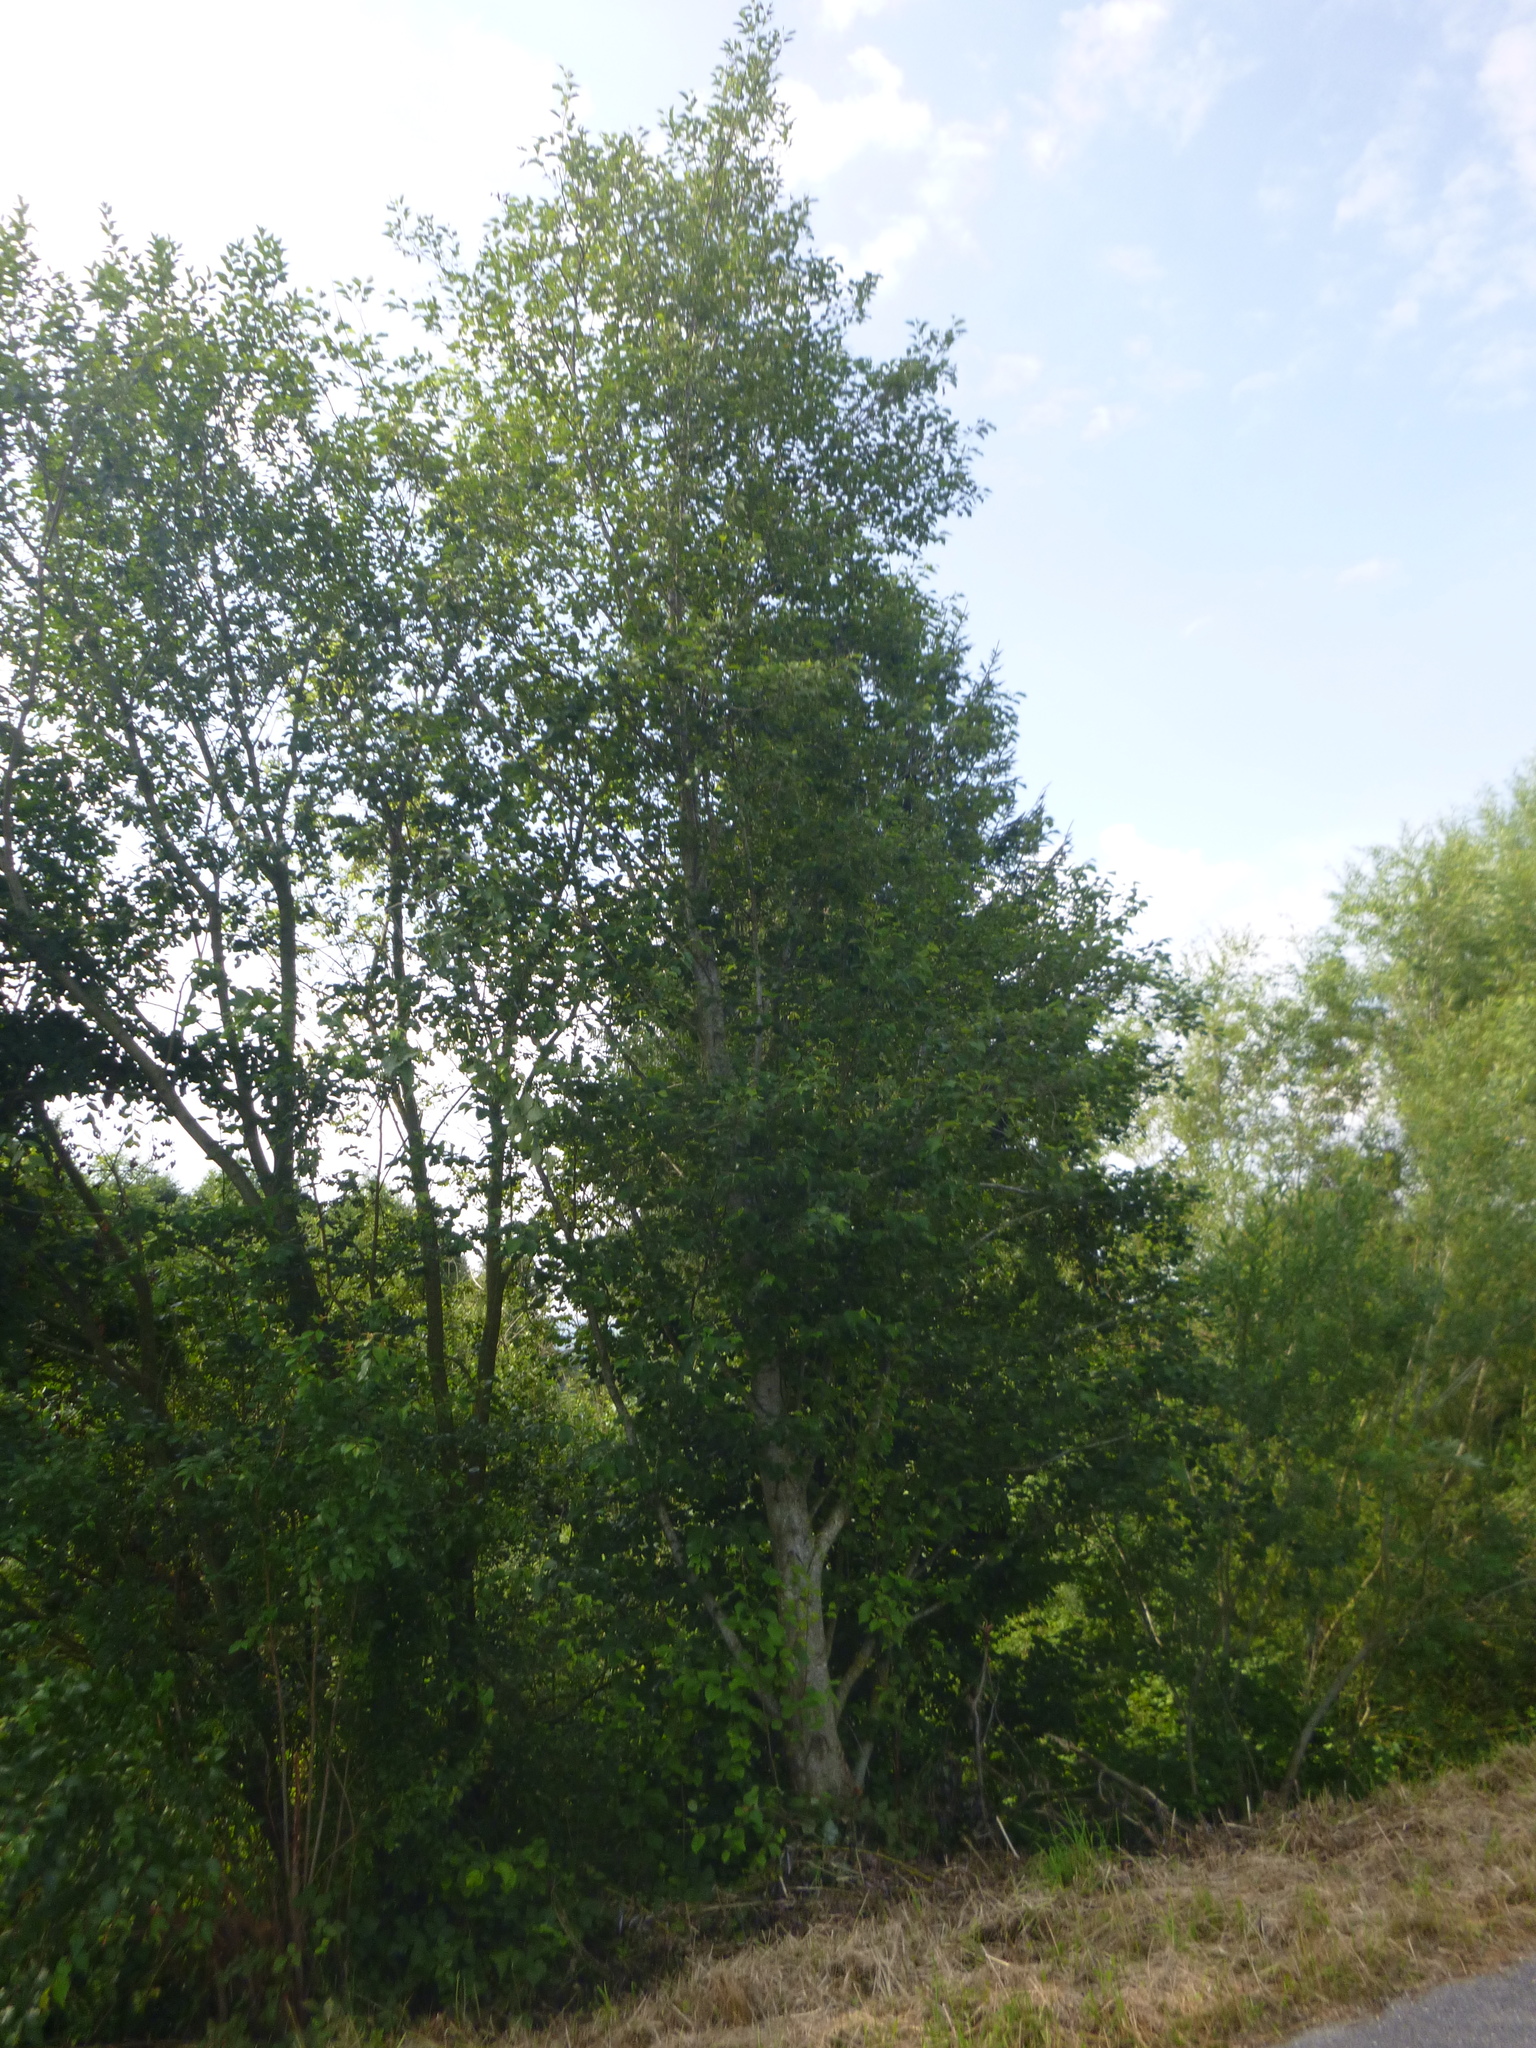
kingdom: Plantae
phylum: Tracheophyta
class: Magnoliopsida
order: Fagales
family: Betulaceae
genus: Alnus
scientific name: Alnus incana
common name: Grey alder
